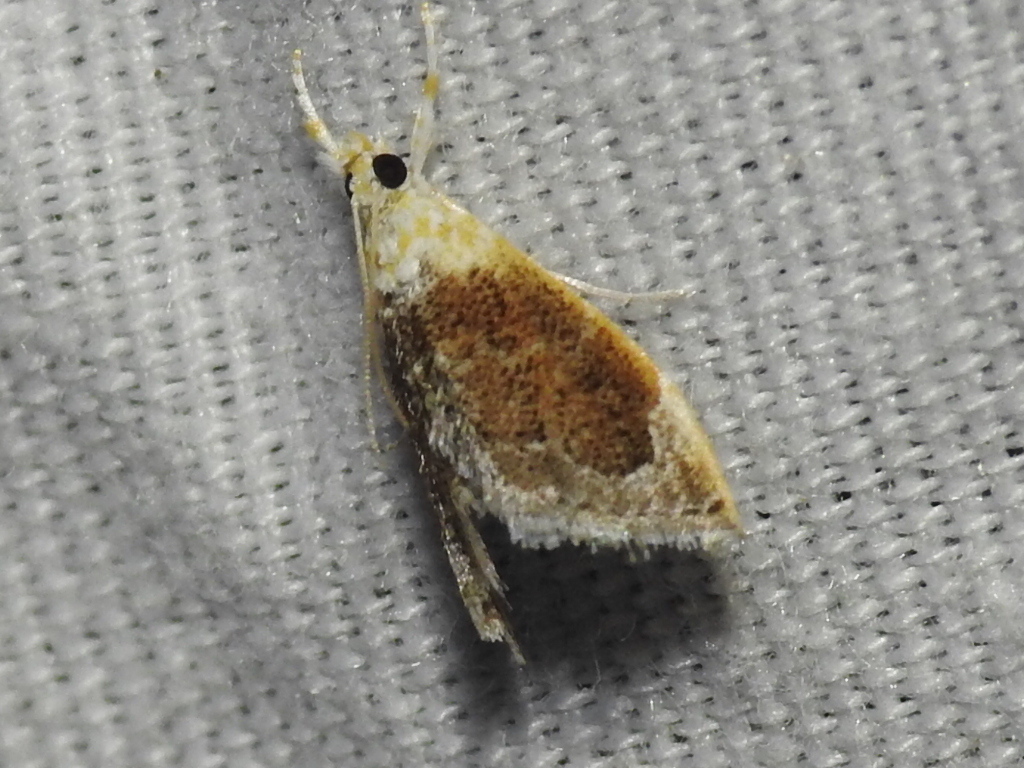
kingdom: Animalia
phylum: Arthropoda
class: Insecta
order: Lepidoptera
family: Crambidae
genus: Lipocosma
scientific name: Lipocosma polingi
